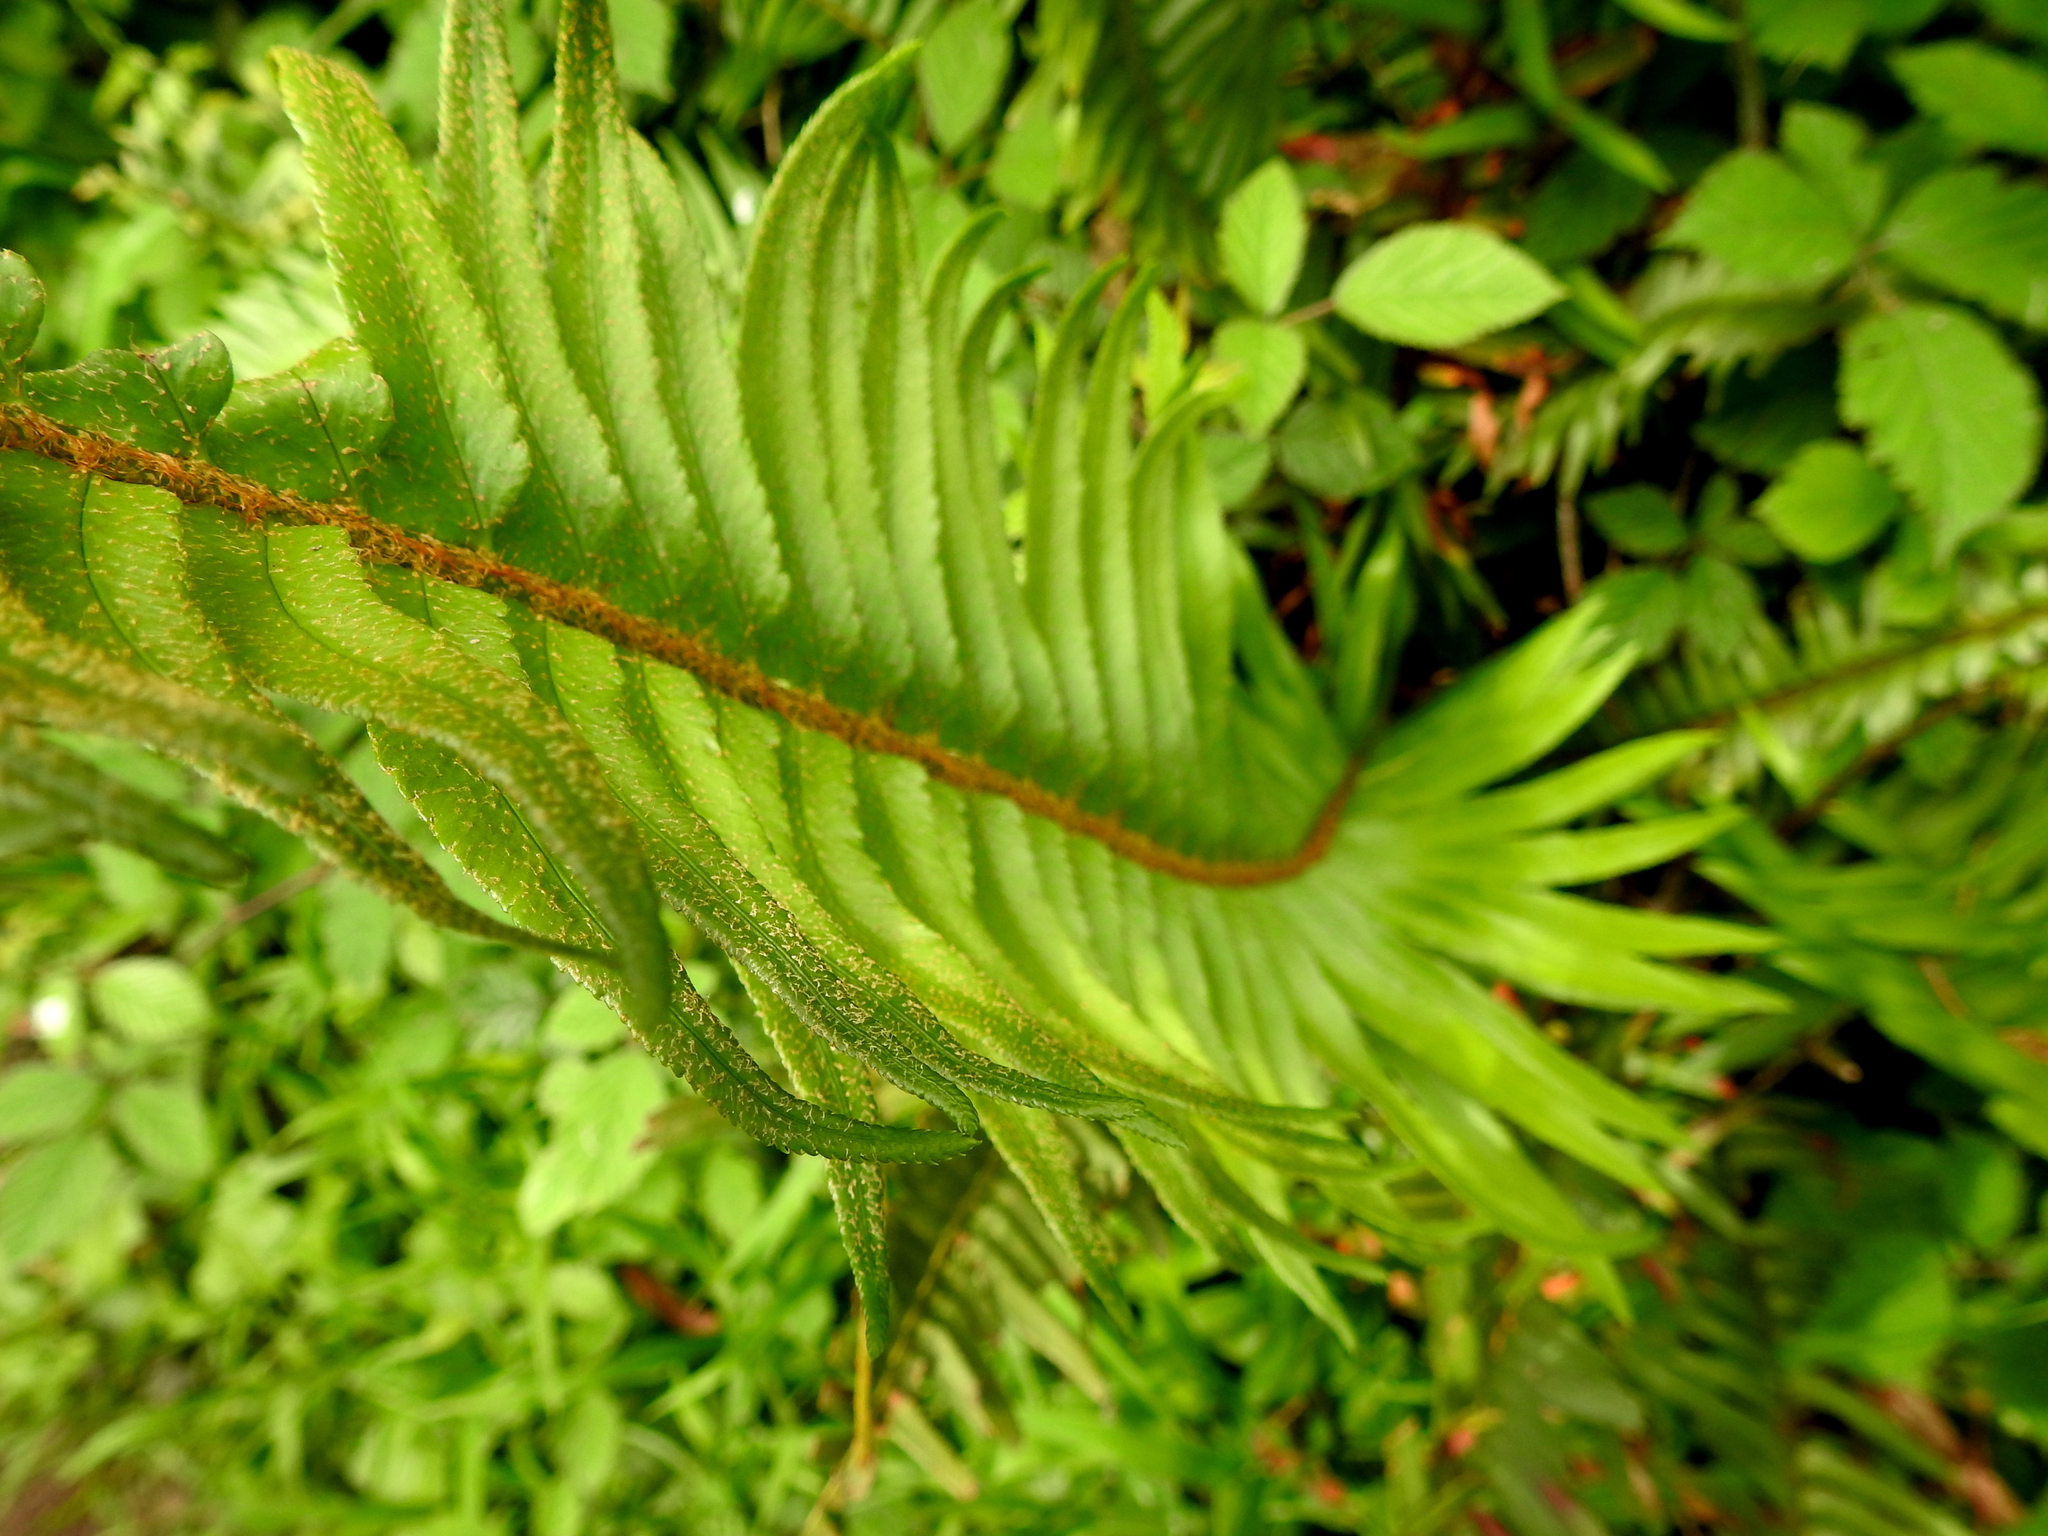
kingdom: Plantae
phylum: Tracheophyta
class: Polypodiopsida
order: Polypodiales
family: Dryopteridaceae
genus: Polystichum
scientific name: Polystichum munitum
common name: Western sword-fern
